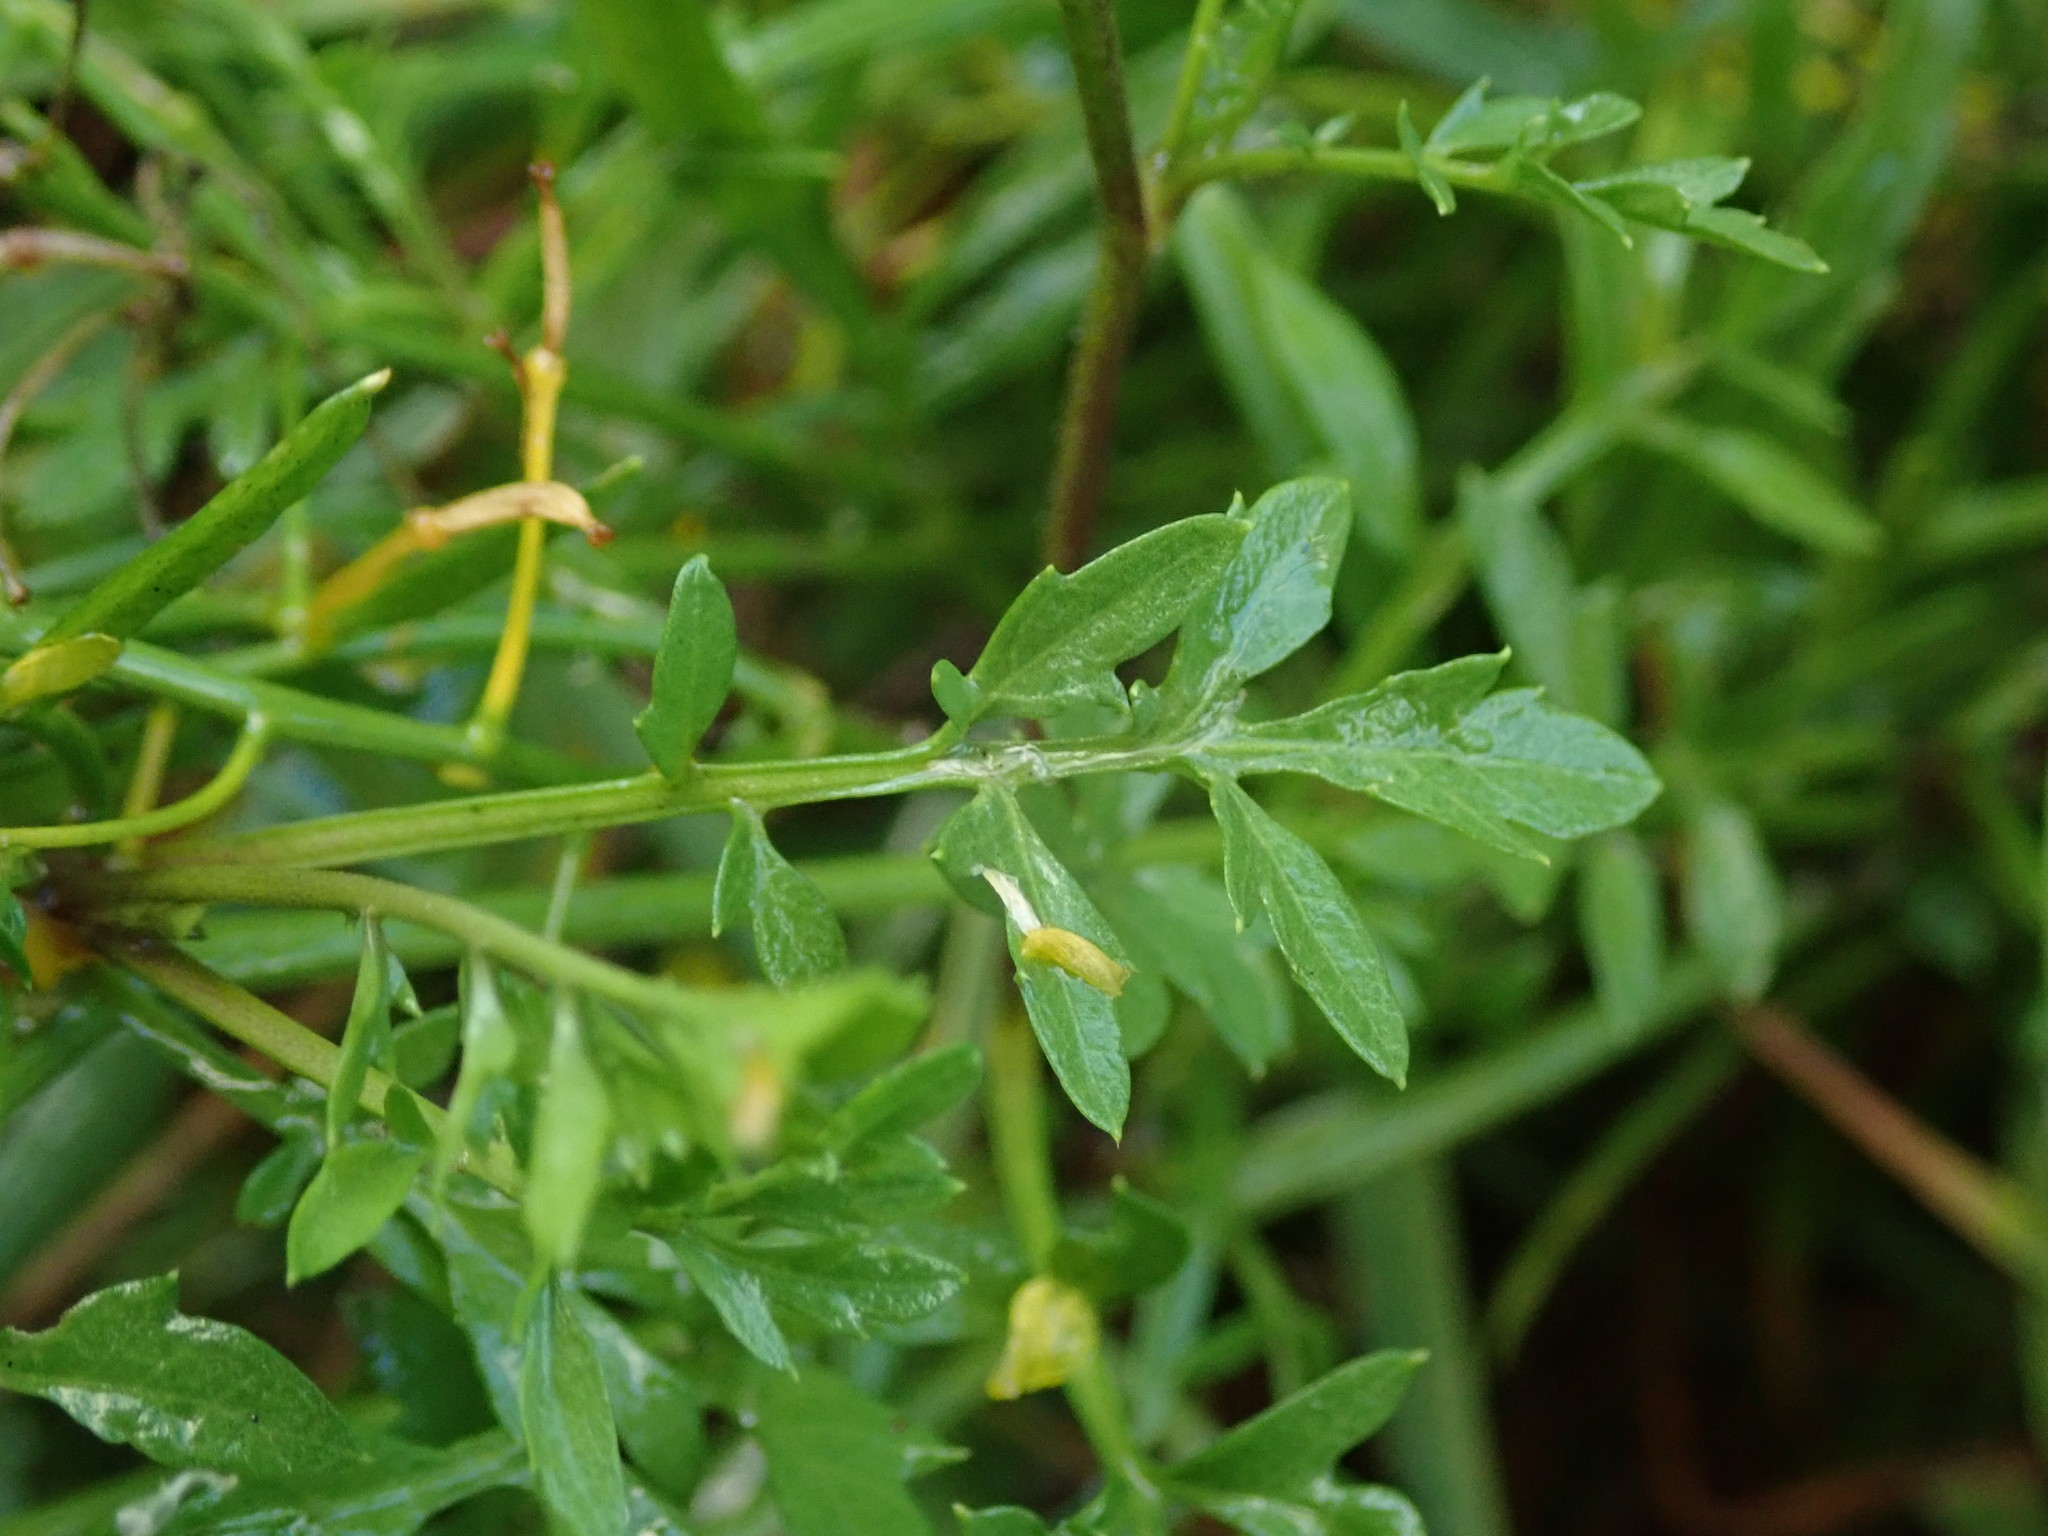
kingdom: Plantae
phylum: Tracheophyta
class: Magnoliopsida
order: Brassicales
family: Brassicaceae
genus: Rorippa
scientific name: Rorippa sylvestris
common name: Creeping yellowcress
